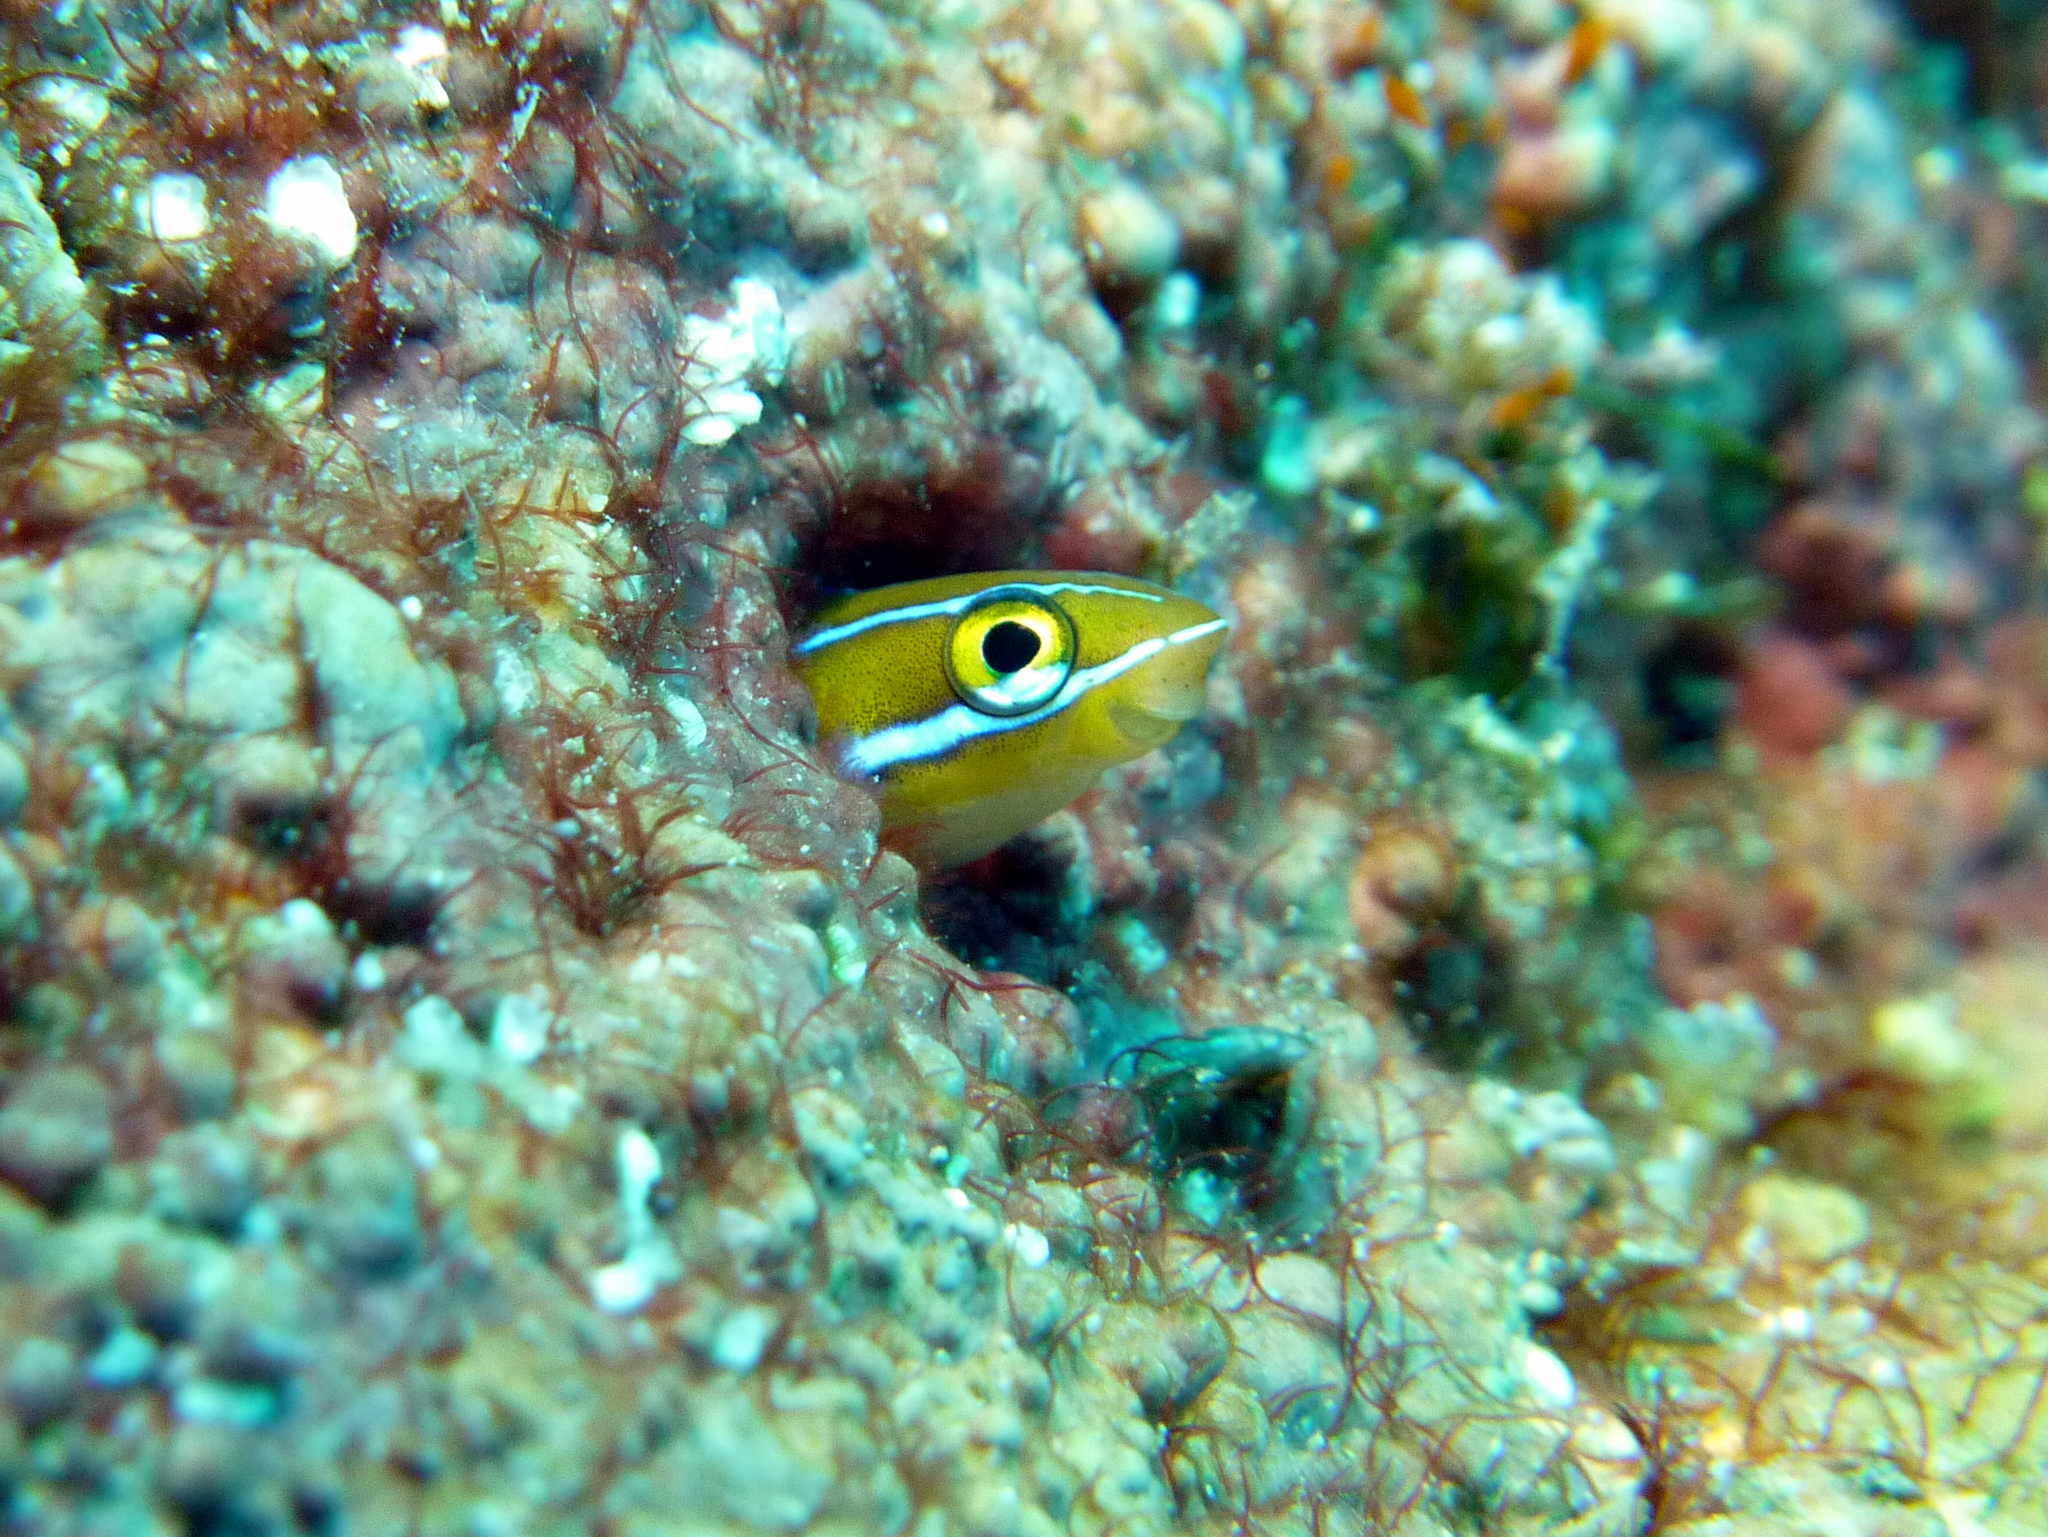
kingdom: Animalia
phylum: Chordata
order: Perciformes
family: Blenniidae
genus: Plagiotremus
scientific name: Plagiotremus rhinorhynchos
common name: Bluestriped fangblenny
